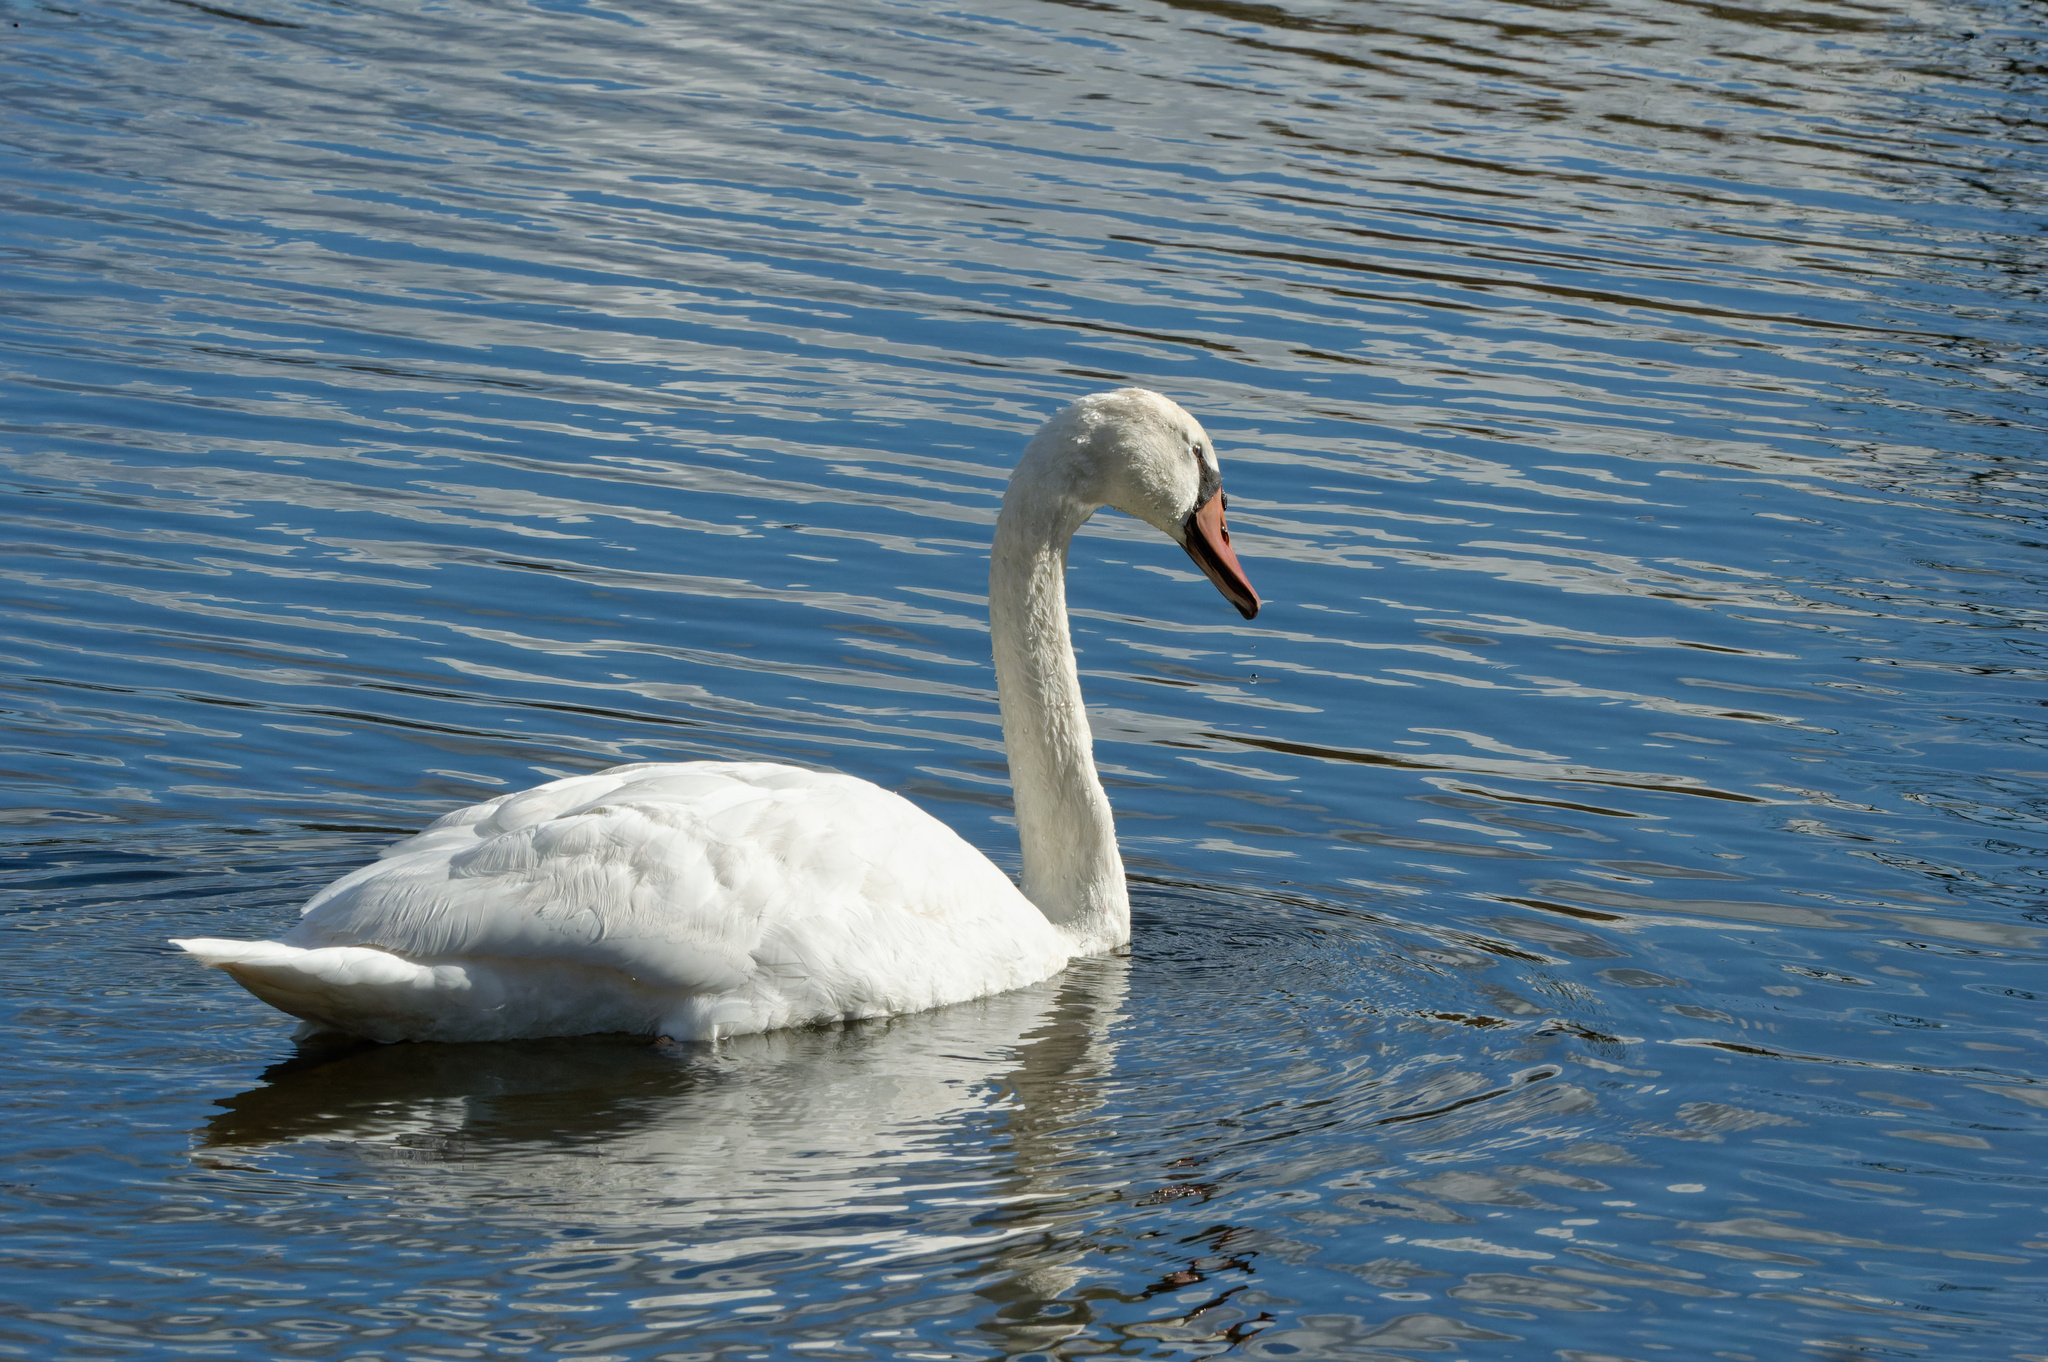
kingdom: Animalia
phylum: Chordata
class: Aves
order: Anseriformes
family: Anatidae
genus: Cygnus
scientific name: Cygnus olor
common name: Mute swan
